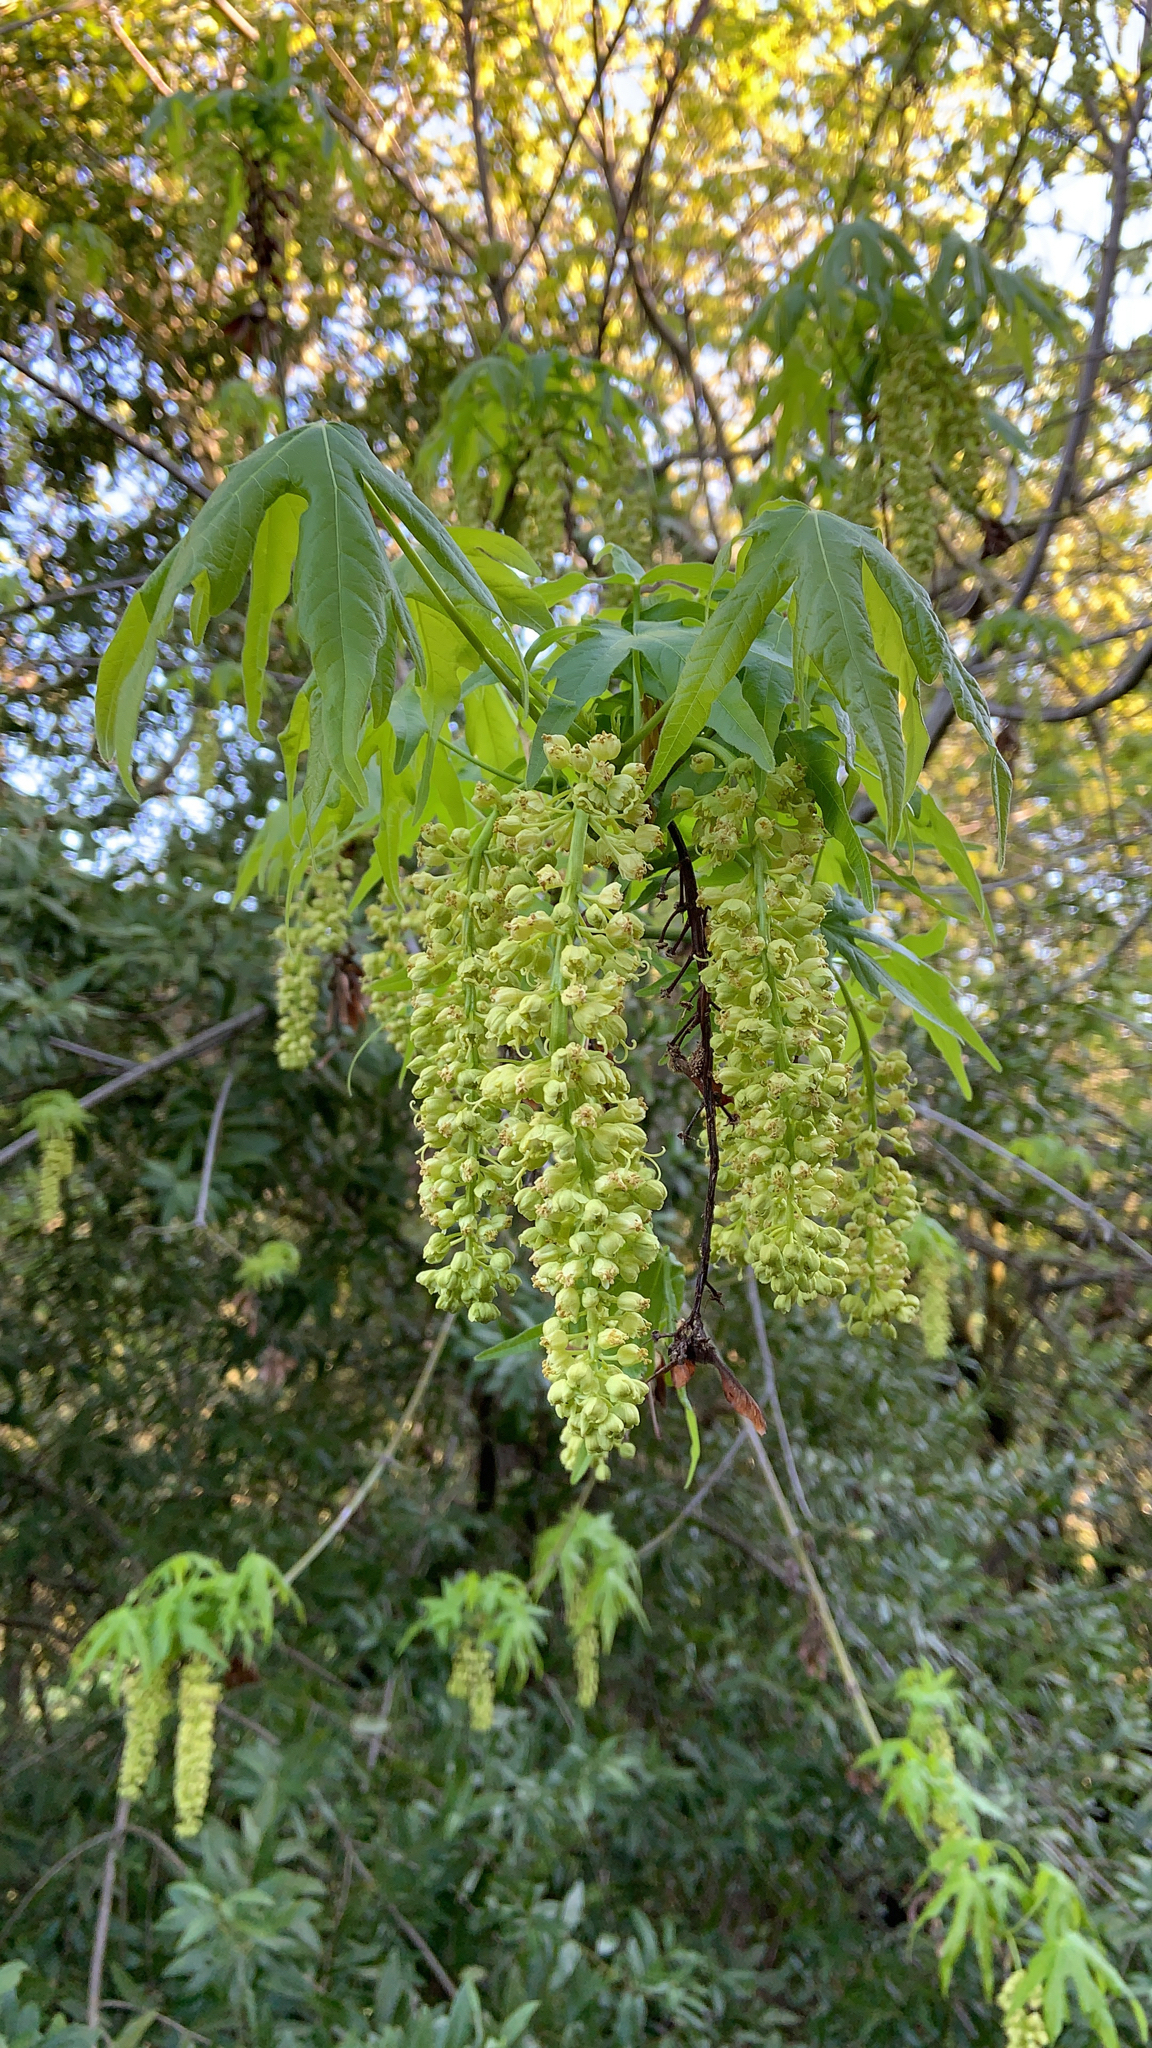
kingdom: Plantae
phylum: Tracheophyta
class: Magnoliopsida
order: Sapindales
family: Sapindaceae
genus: Acer
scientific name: Acer macrophyllum
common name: Oregon maple
